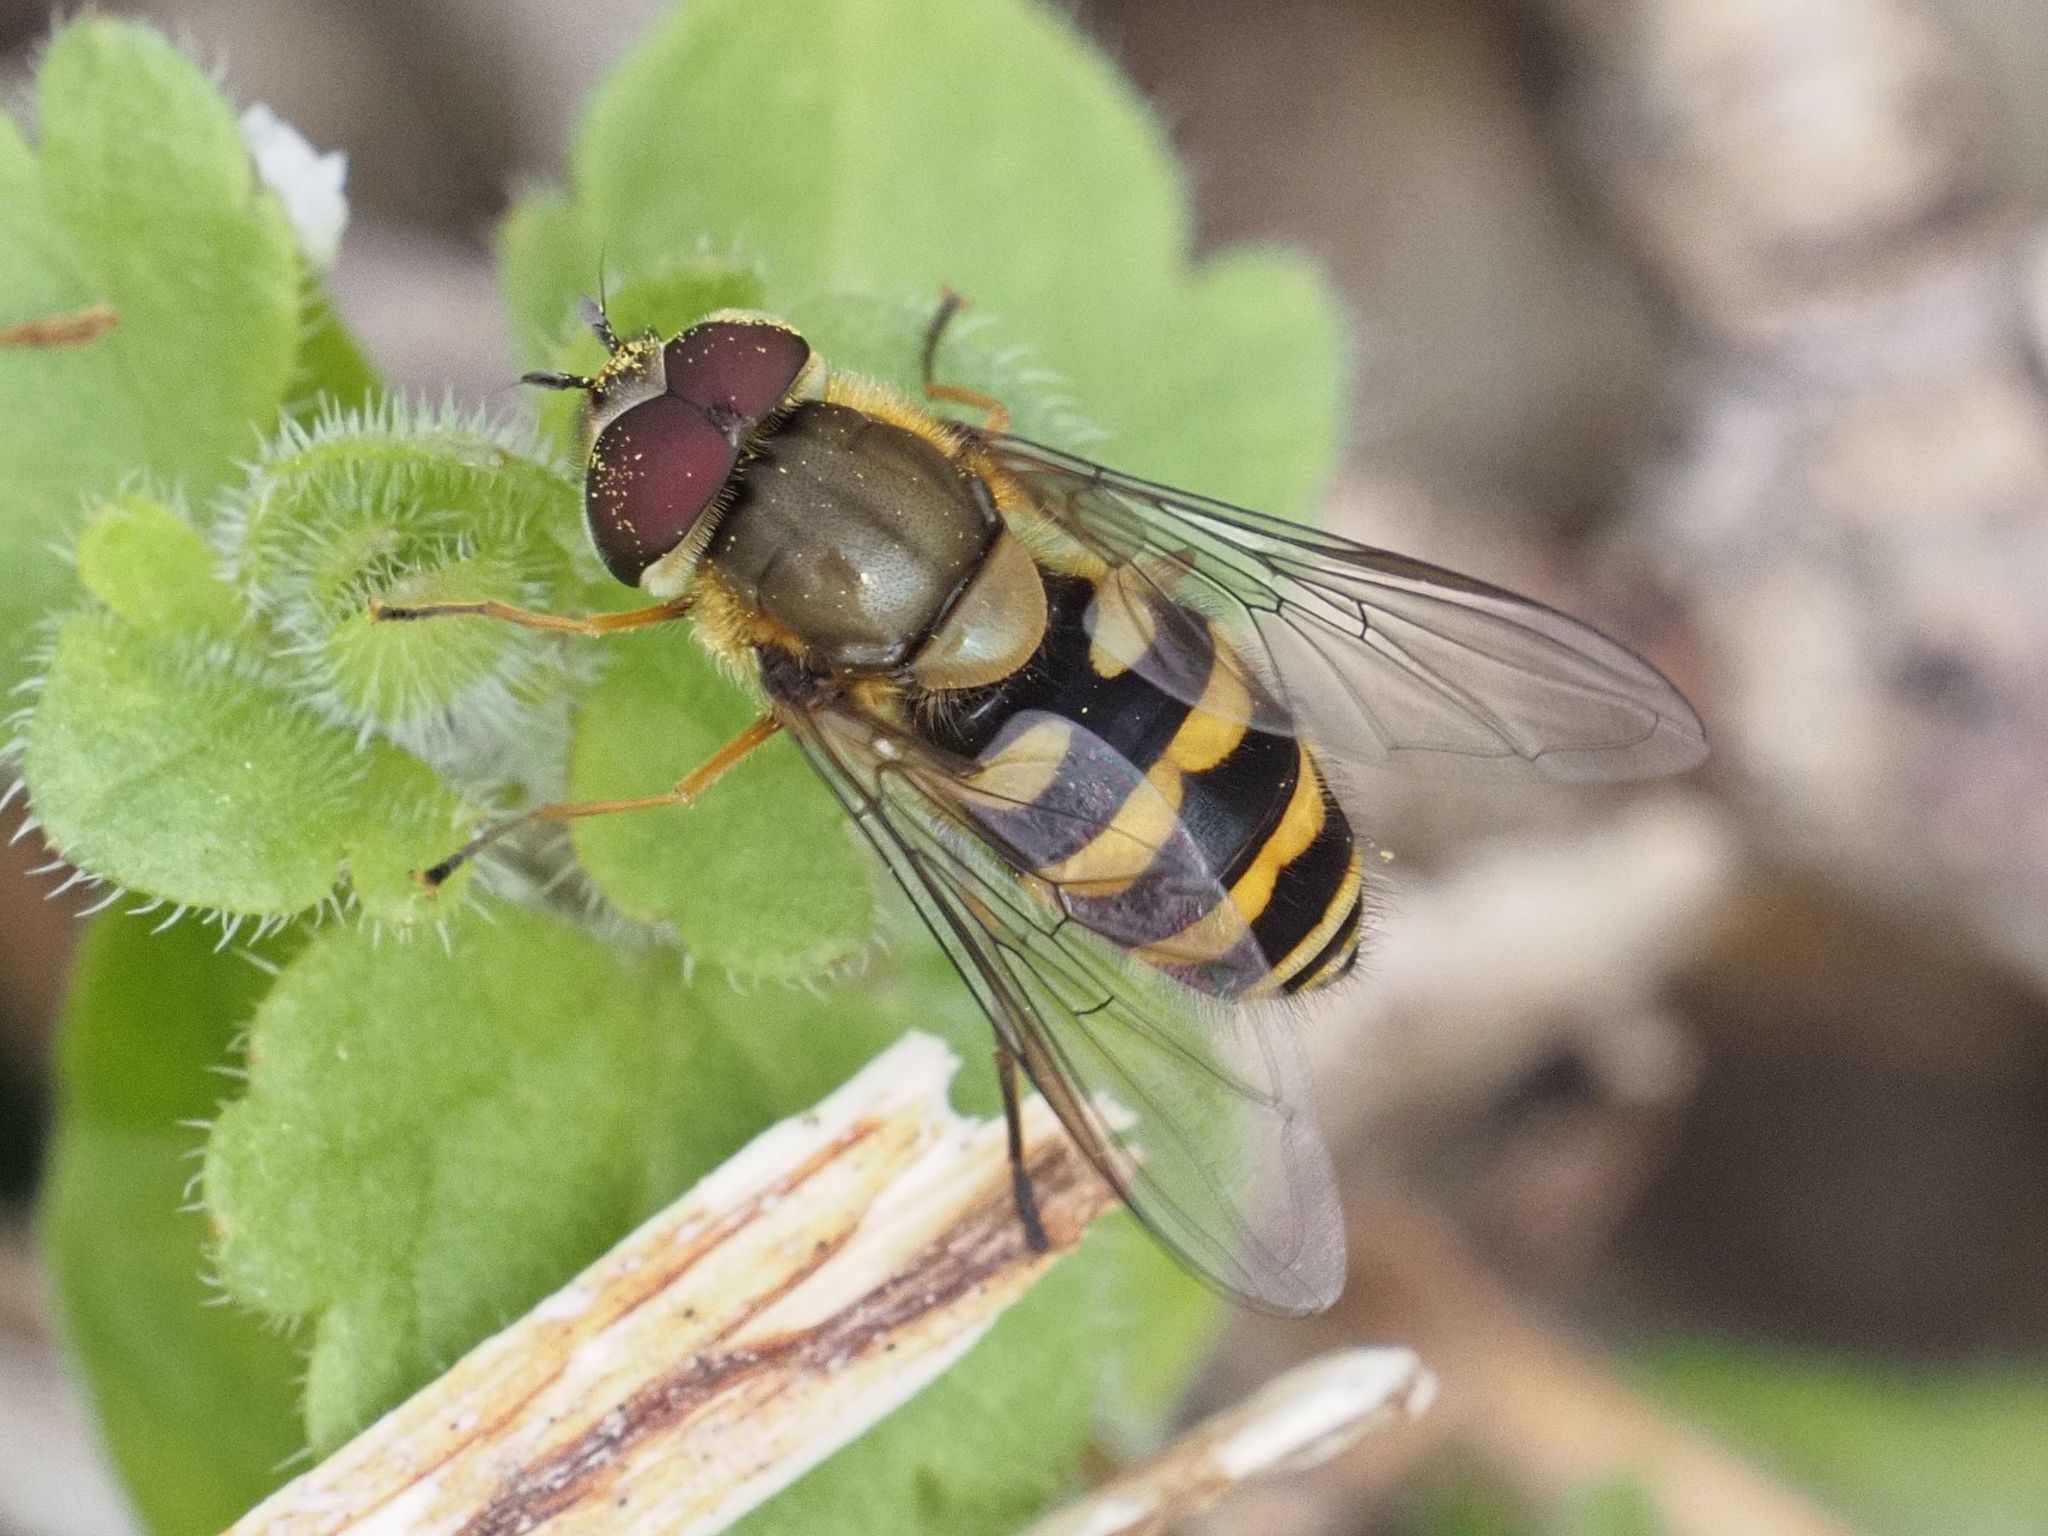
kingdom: Animalia
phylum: Arthropoda
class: Insecta
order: Diptera
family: Syrphidae
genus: Syrphus
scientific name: Syrphus torvus
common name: Hairy-eyed flower fly
